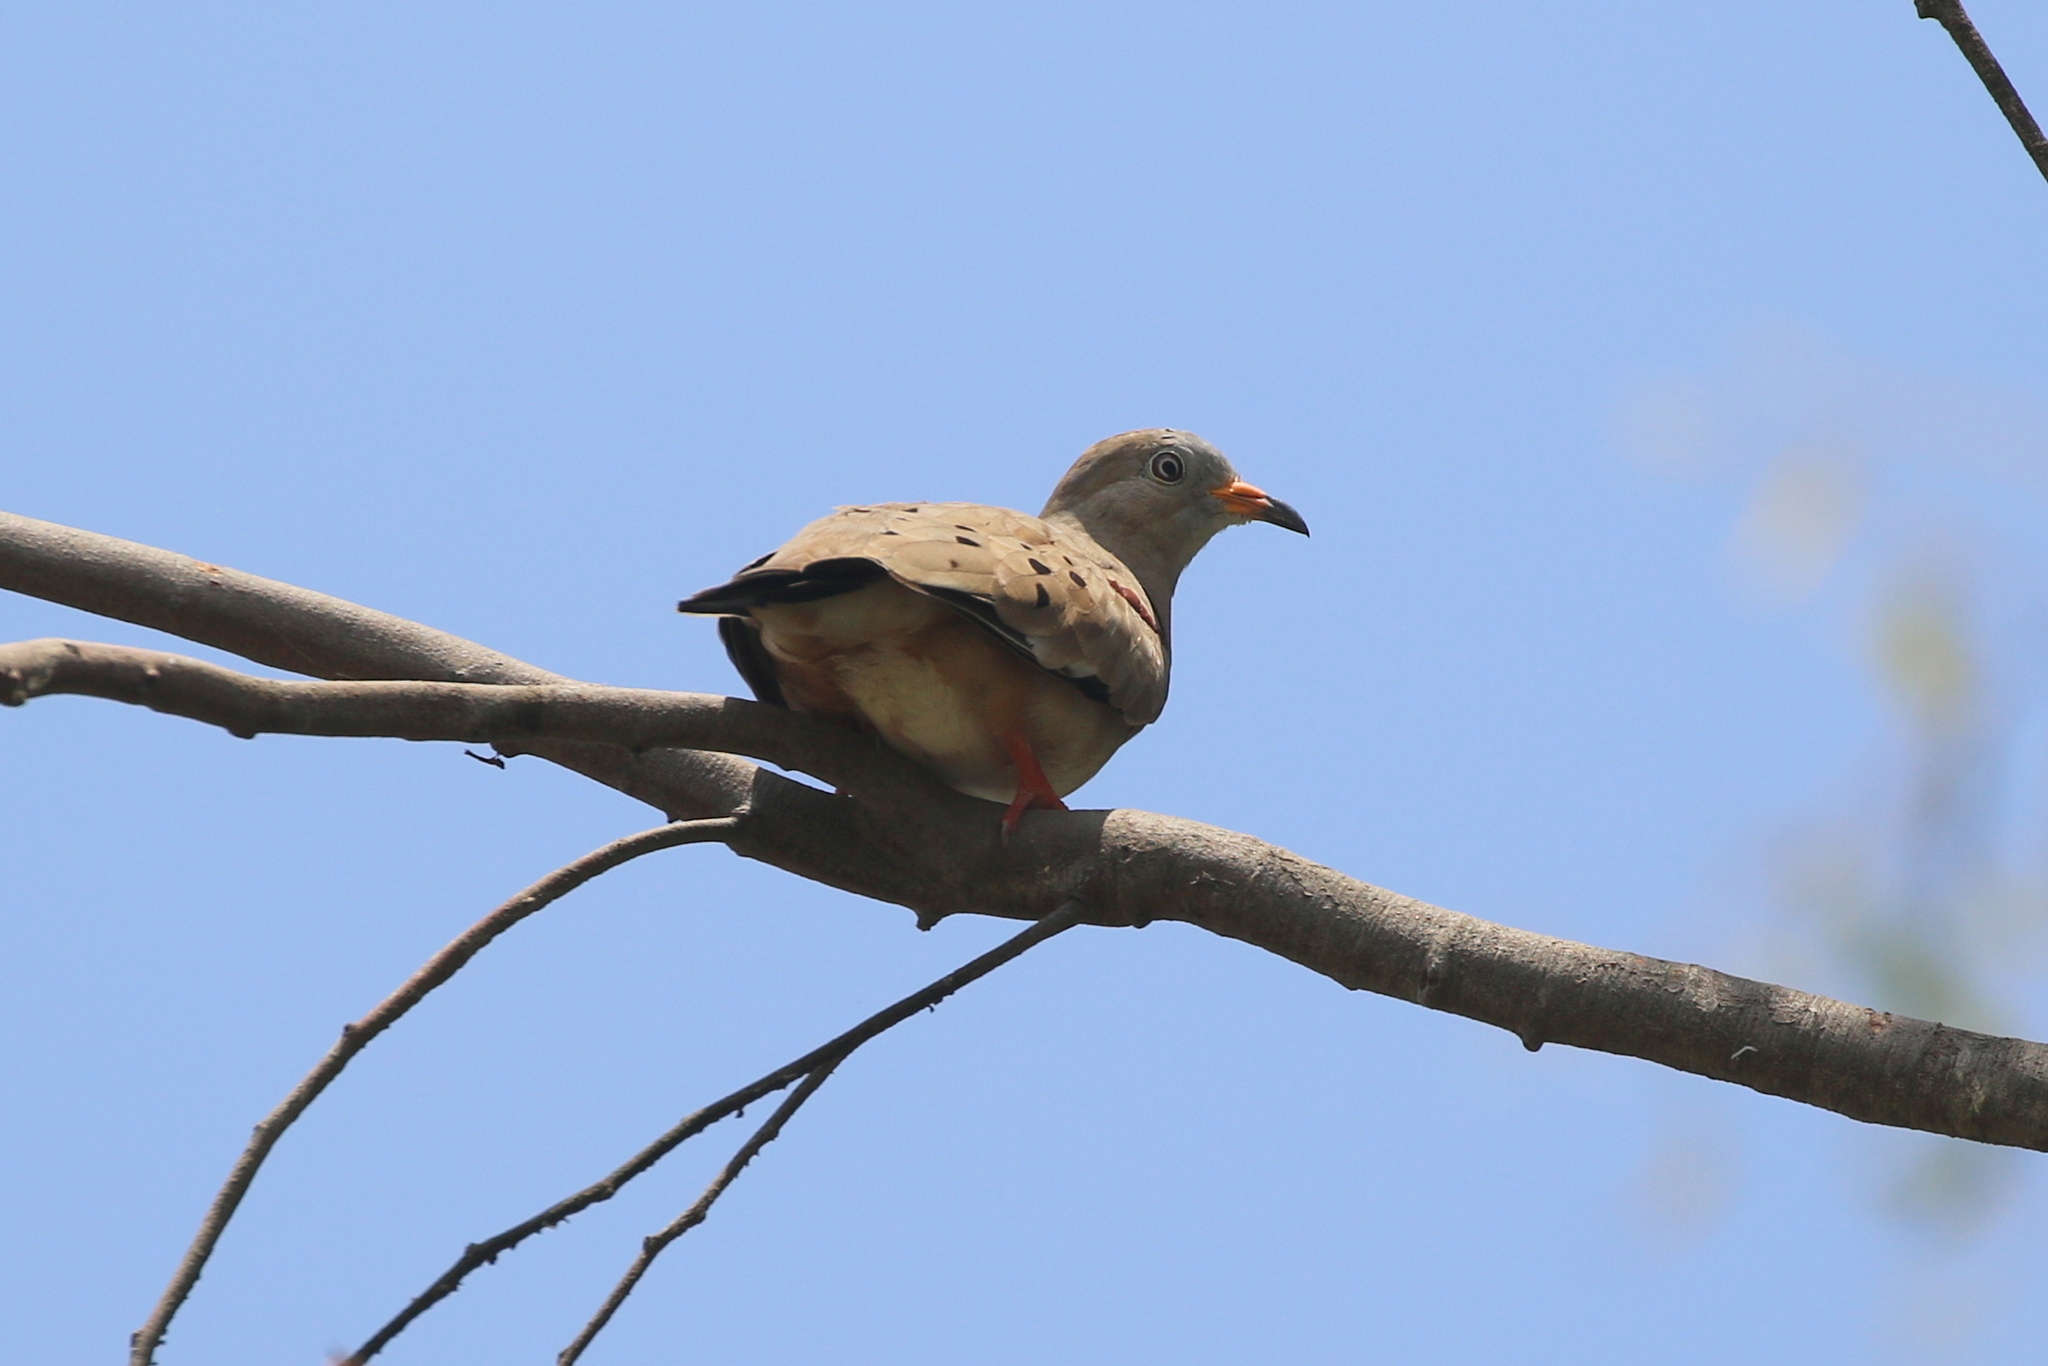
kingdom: Animalia
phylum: Chordata
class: Aves
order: Columbiformes
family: Columbidae
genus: Columbina
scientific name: Columbina cruziana
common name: Croaking ground dove
